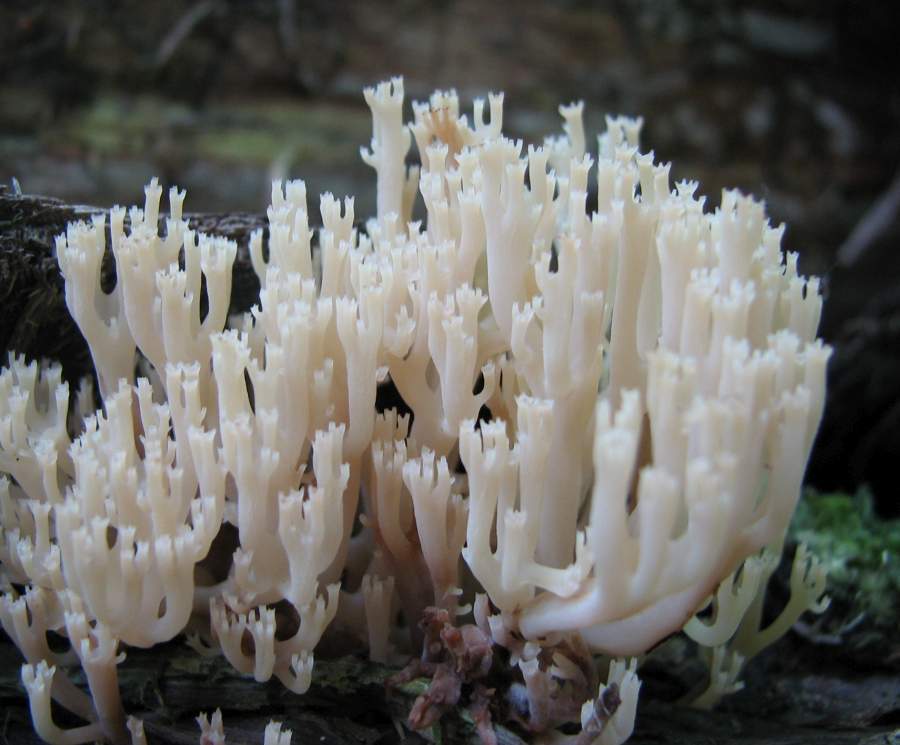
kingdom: Fungi
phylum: Basidiomycota
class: Agaricomycetes
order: Russulales
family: Auriscalpiaceae
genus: Artomyces
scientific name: Artomyces pyxidatus
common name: Crown-tipped coral fungus
